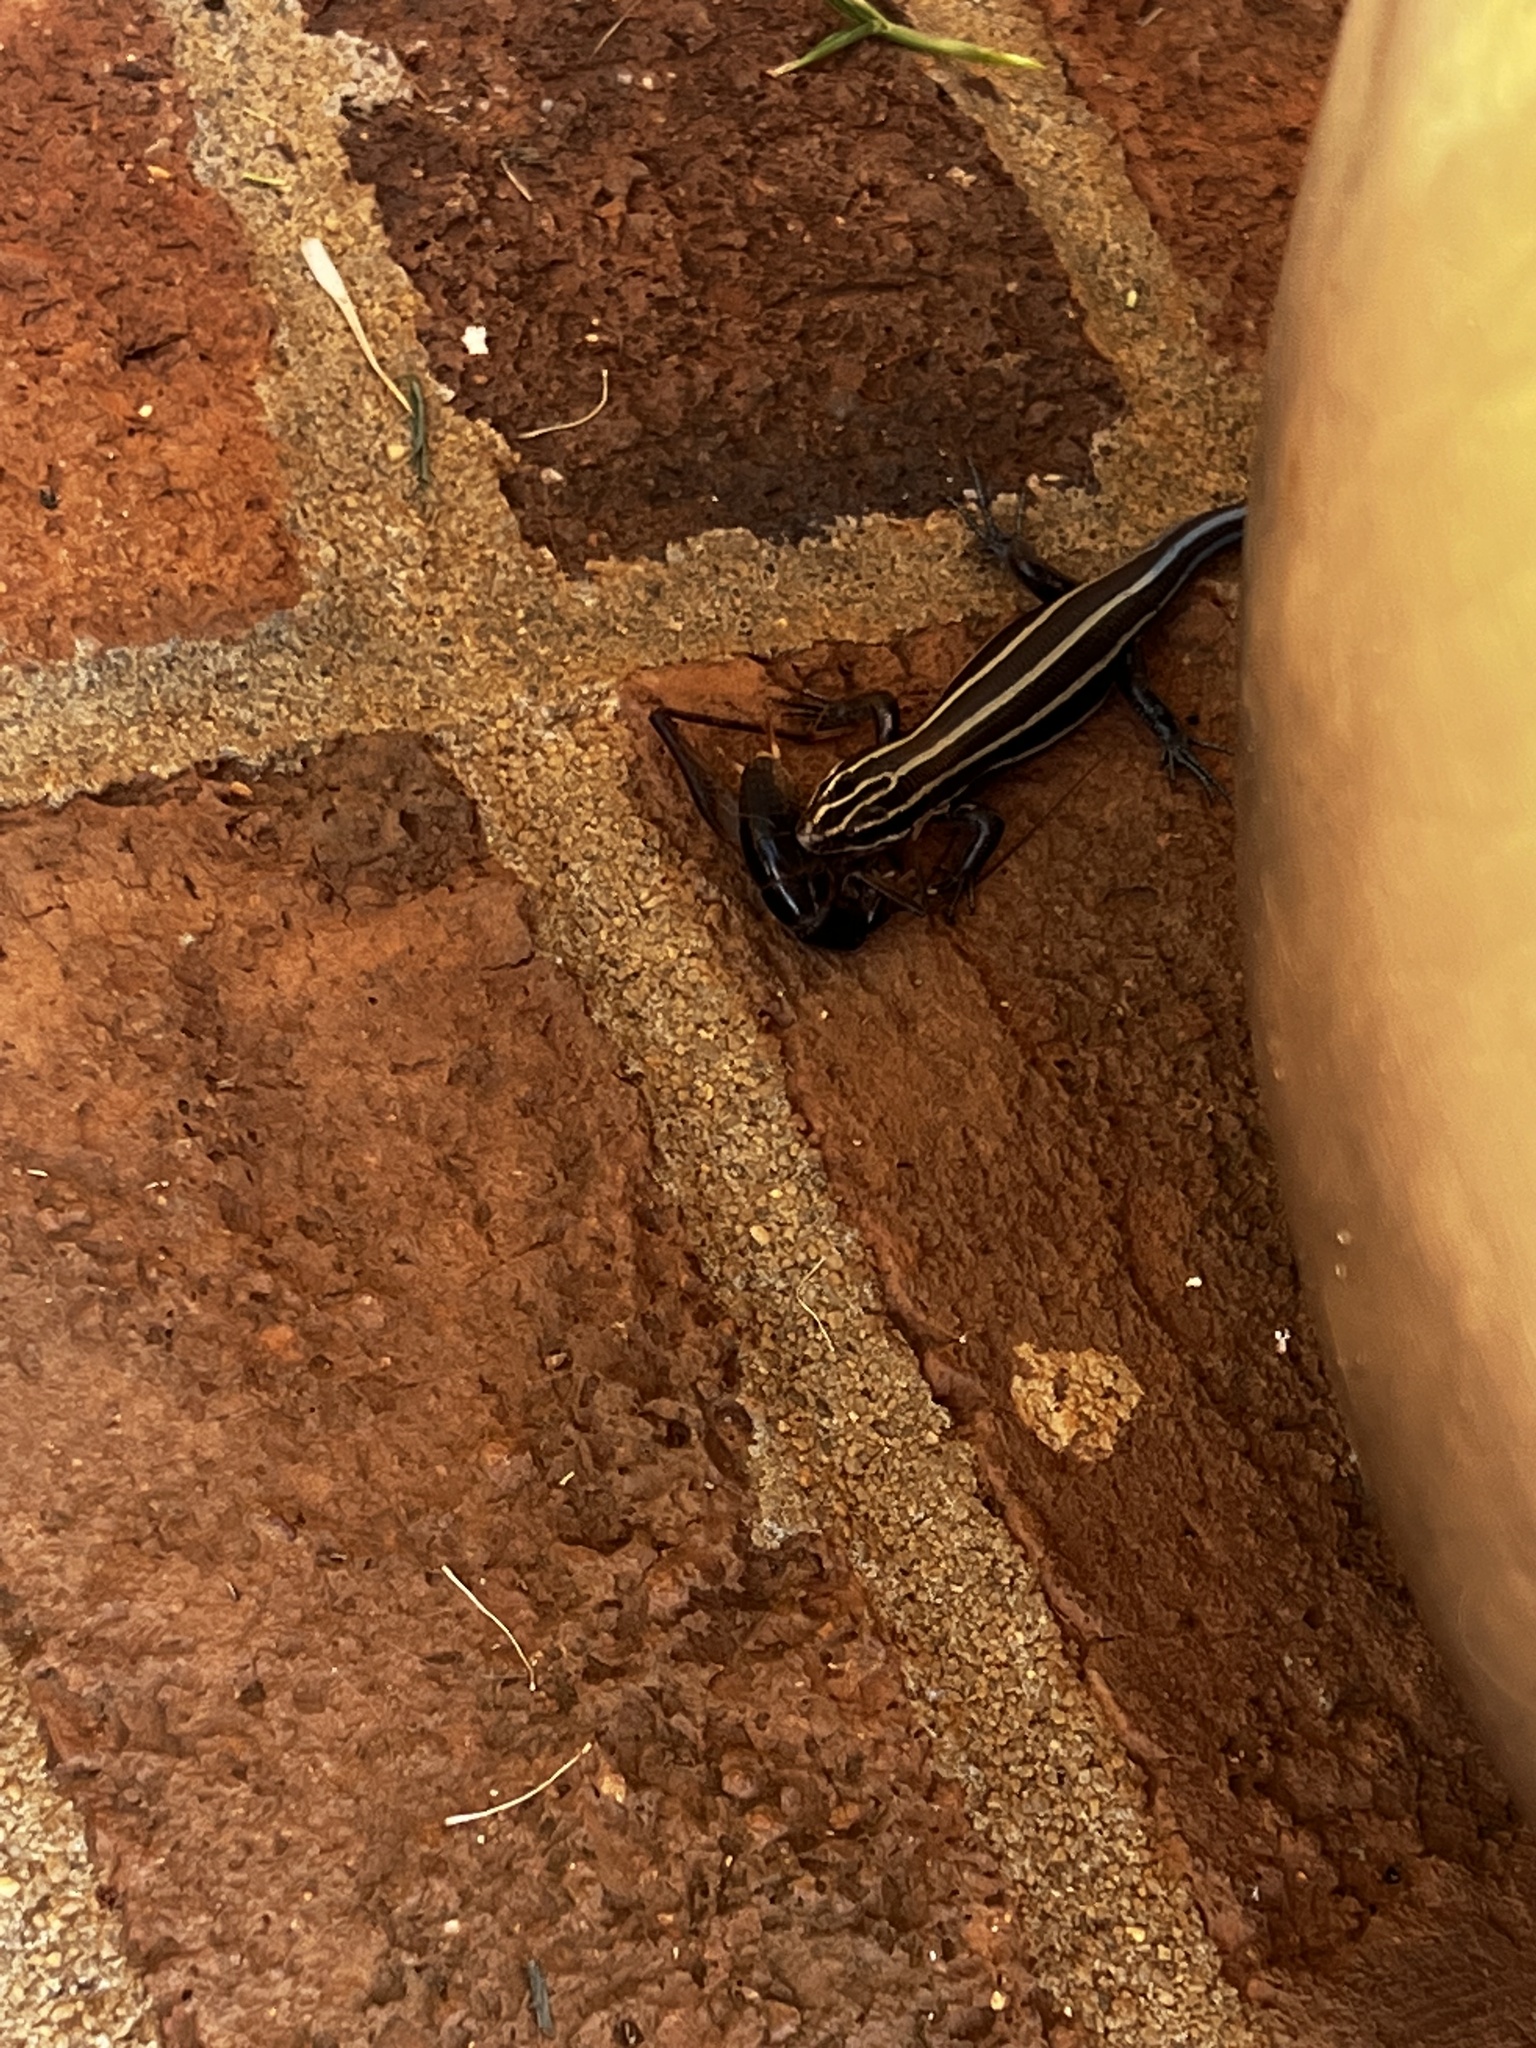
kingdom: Animalia
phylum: Chordata
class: Squamata
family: Scincidae
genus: Plestiodon
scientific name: Plestiodon fasciatus
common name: Five-lined skink
